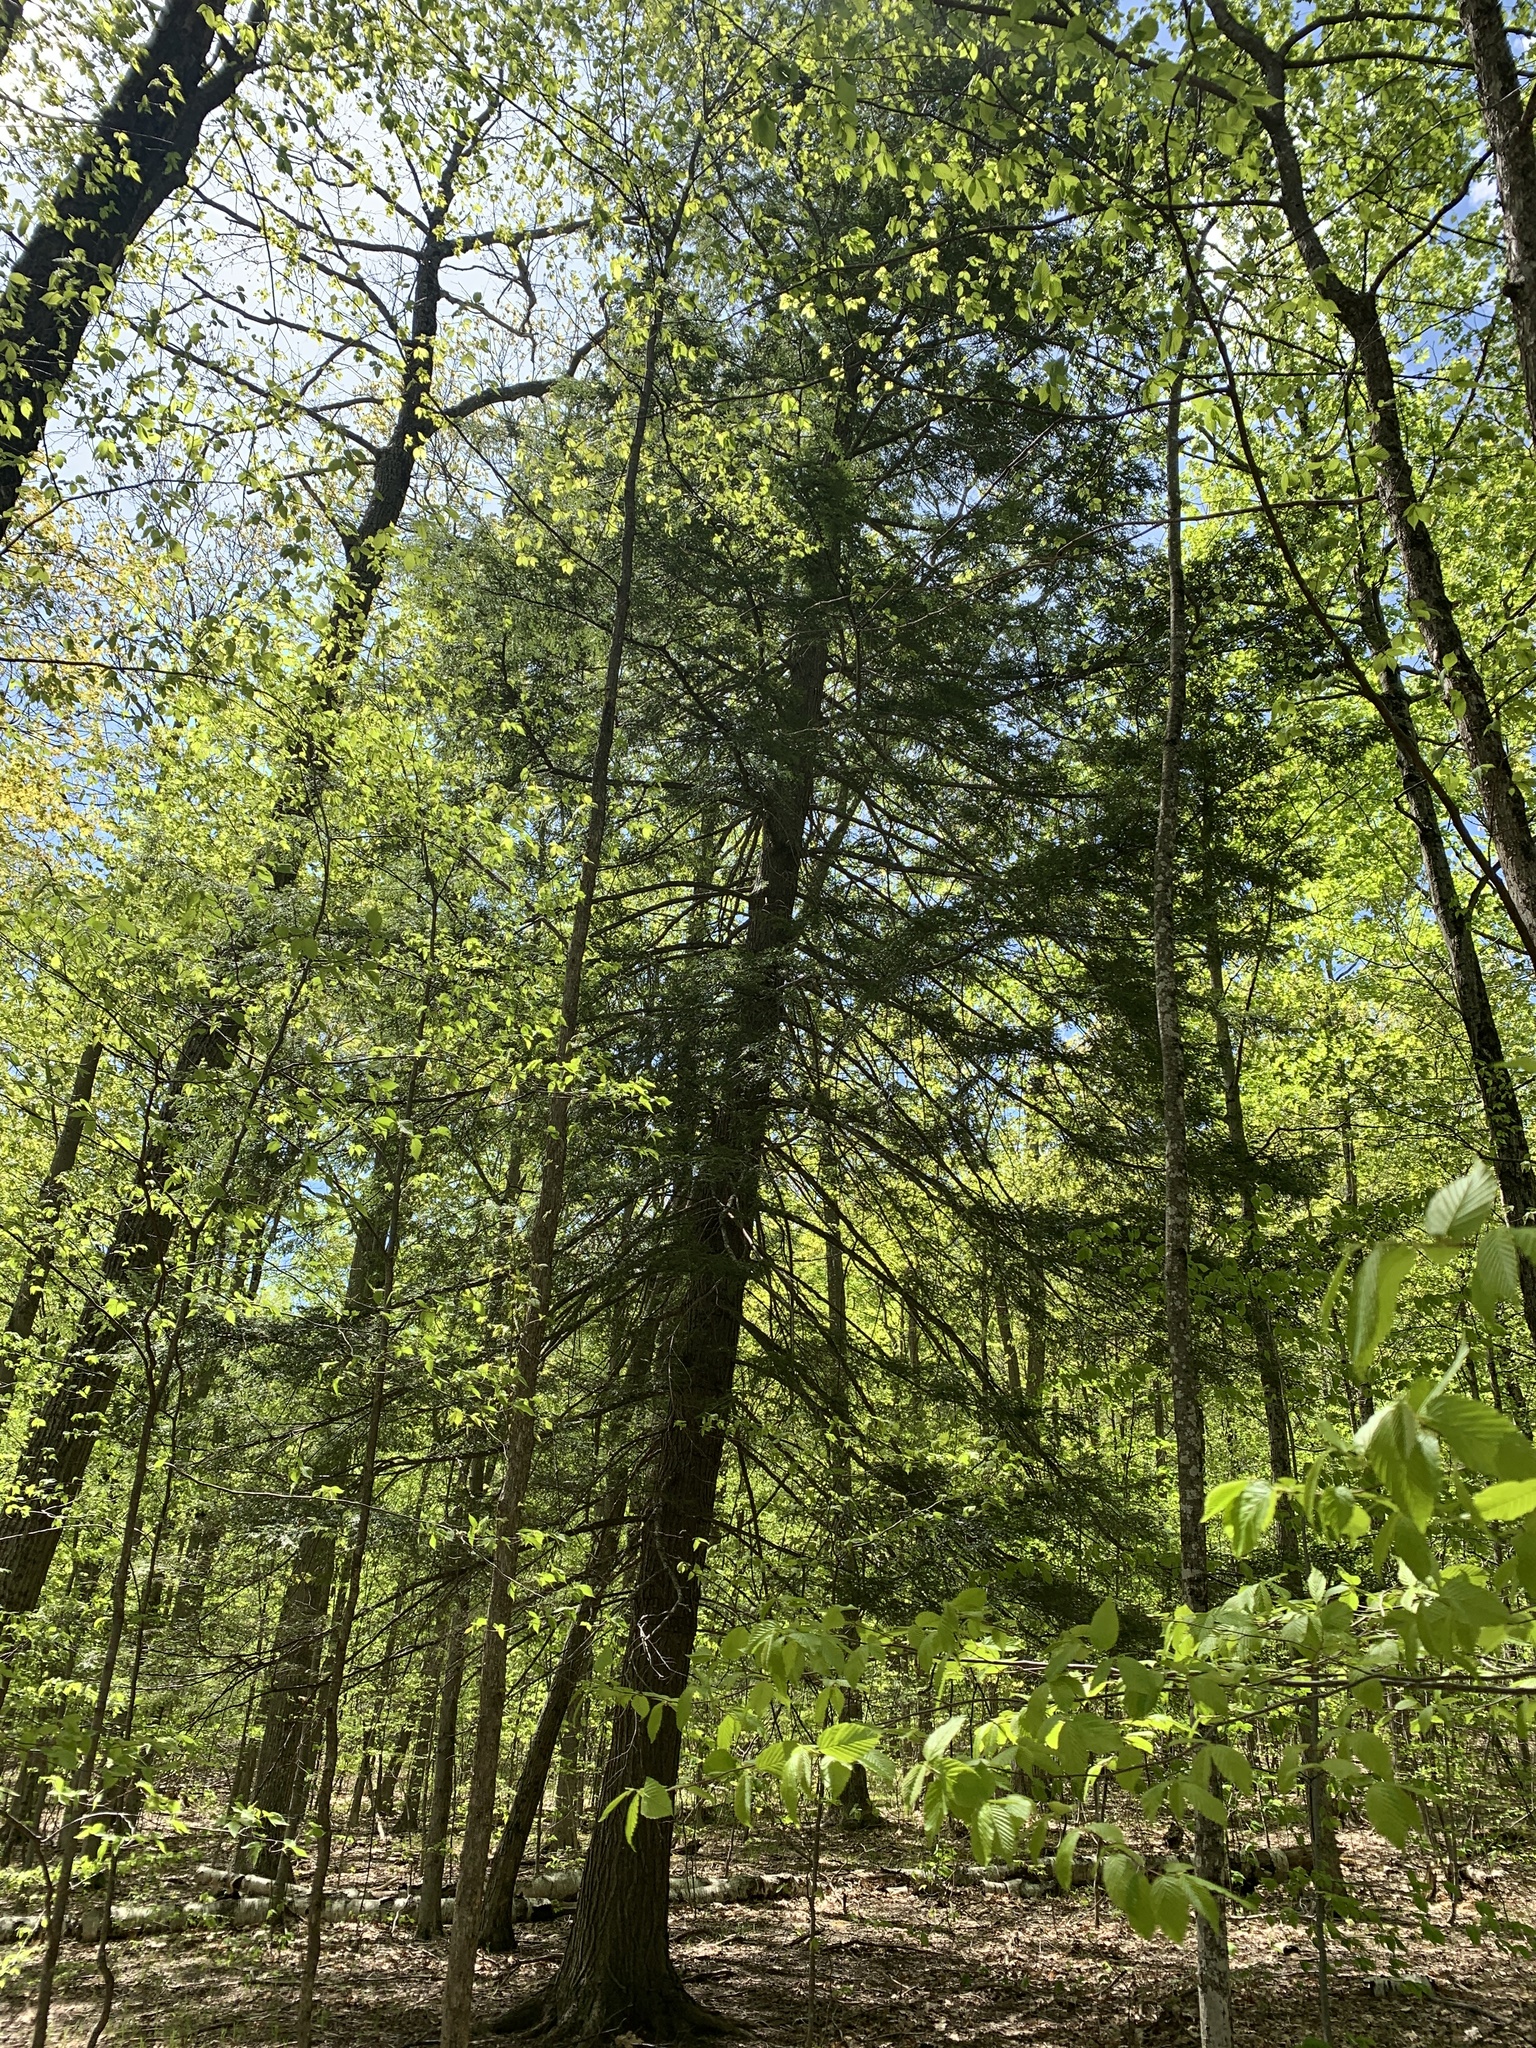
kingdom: Plantae
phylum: Tracheophyta
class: Pinopsida
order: Pinales
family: Pinaceae
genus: Tsuga
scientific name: Tsuga canadensis
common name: Eastern hemlock
